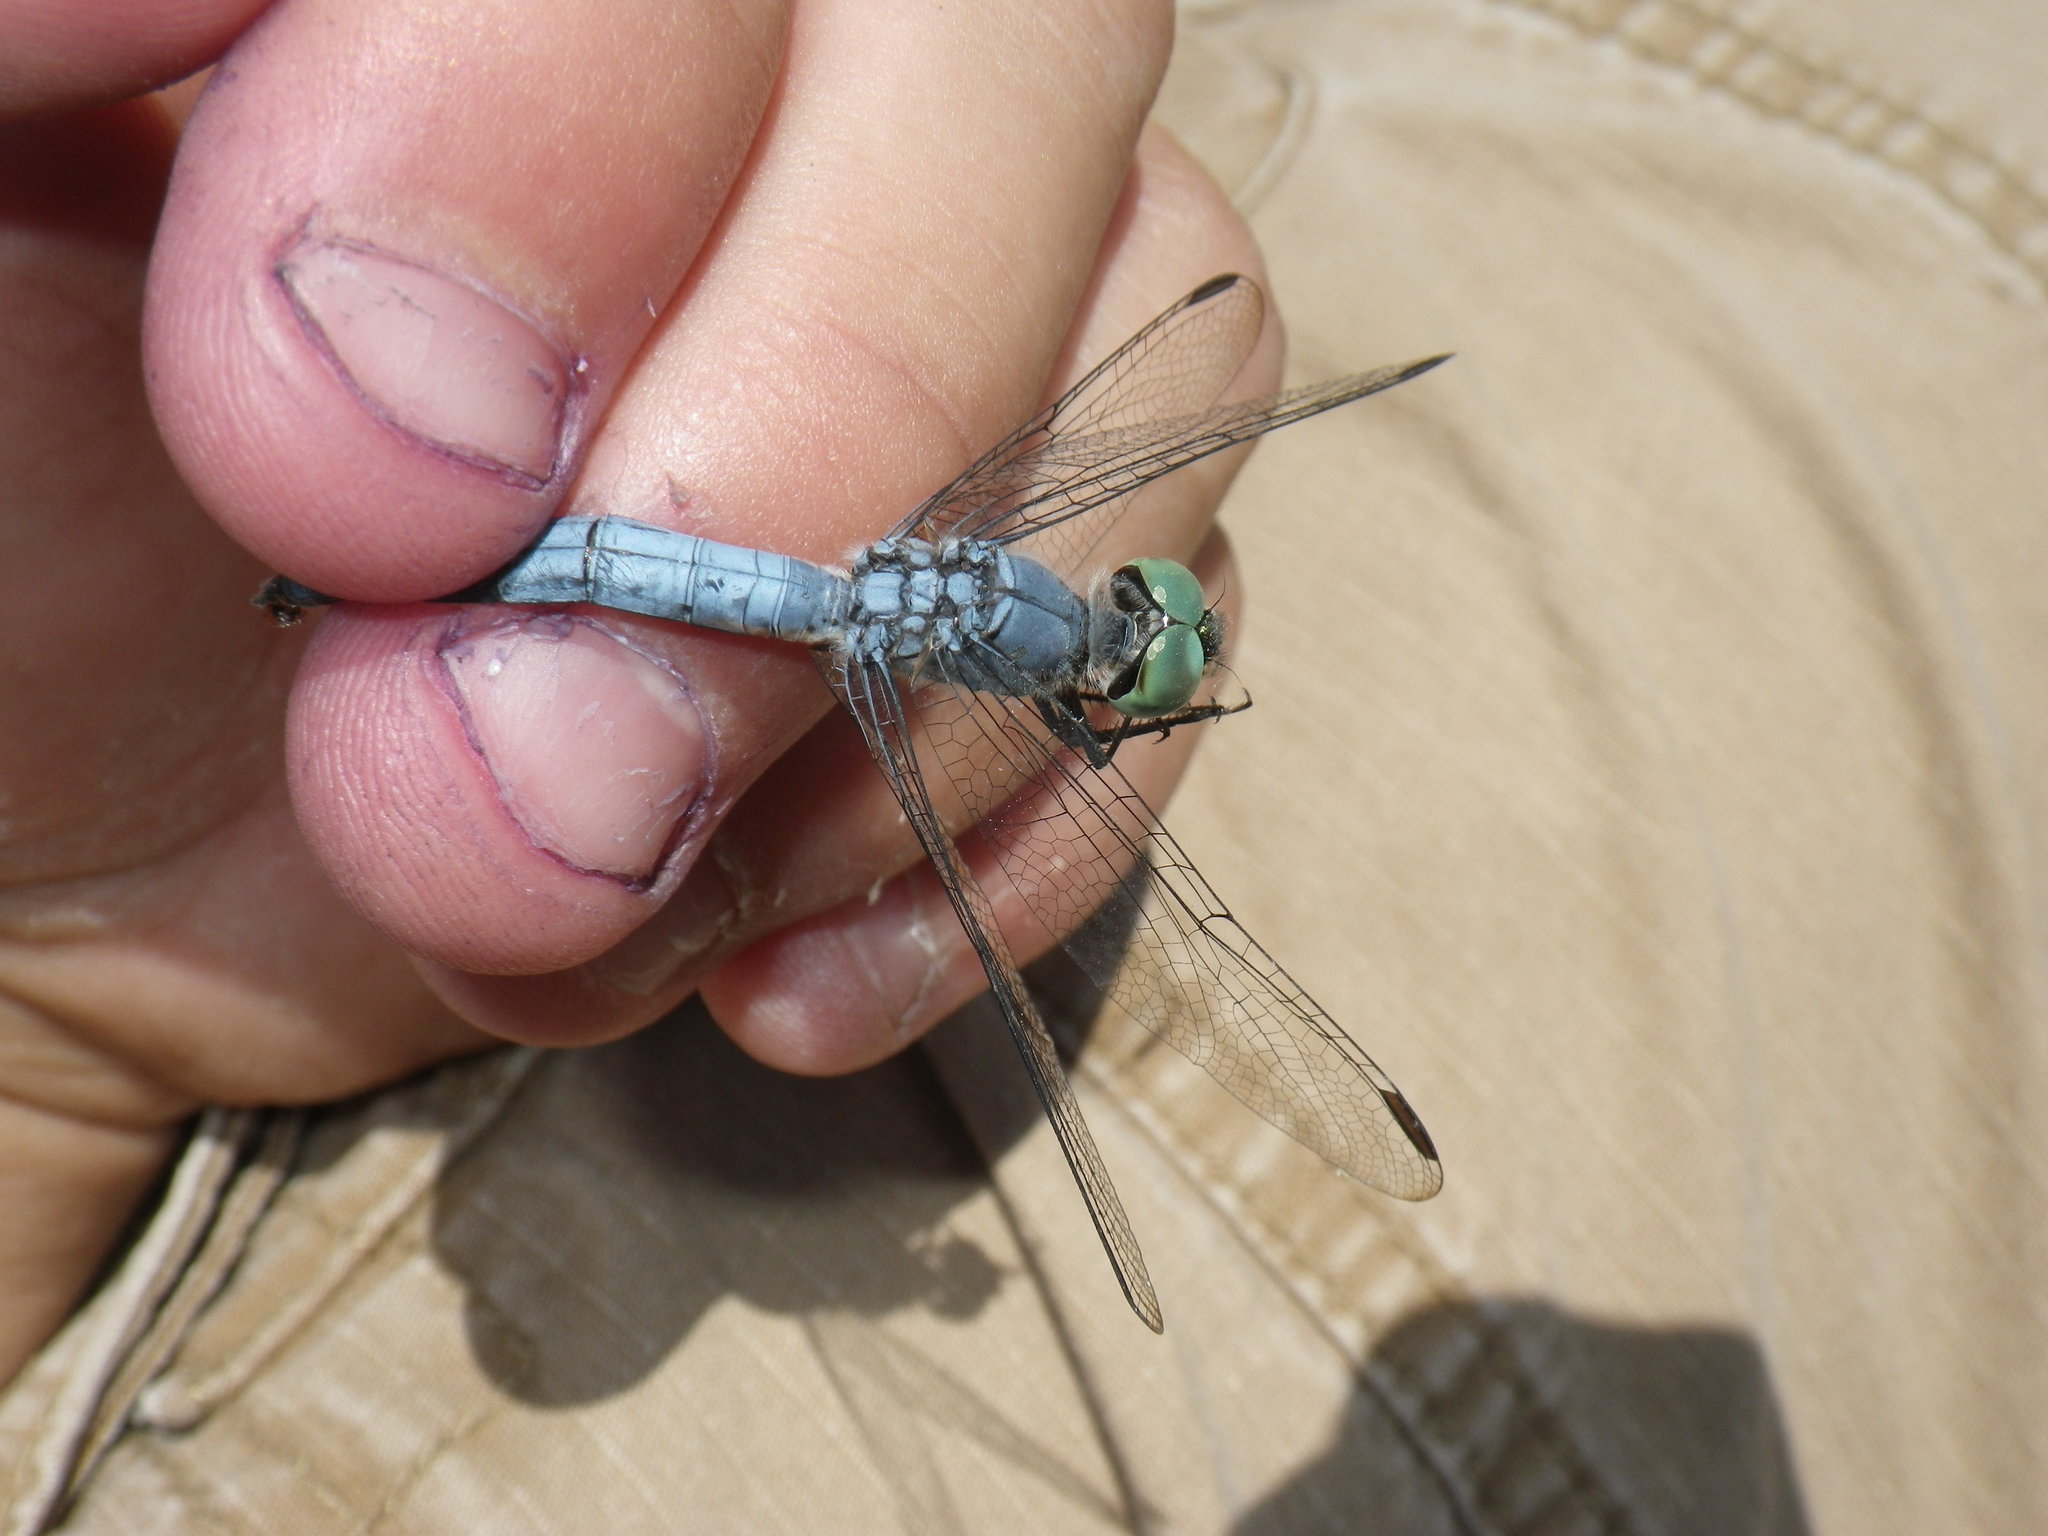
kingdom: Animalia
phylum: Arthropoda
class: Insecta
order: Odonata
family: Libellulidae
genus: Pachydiplax
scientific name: Pachydiplax longipennis
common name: Blue dasher
